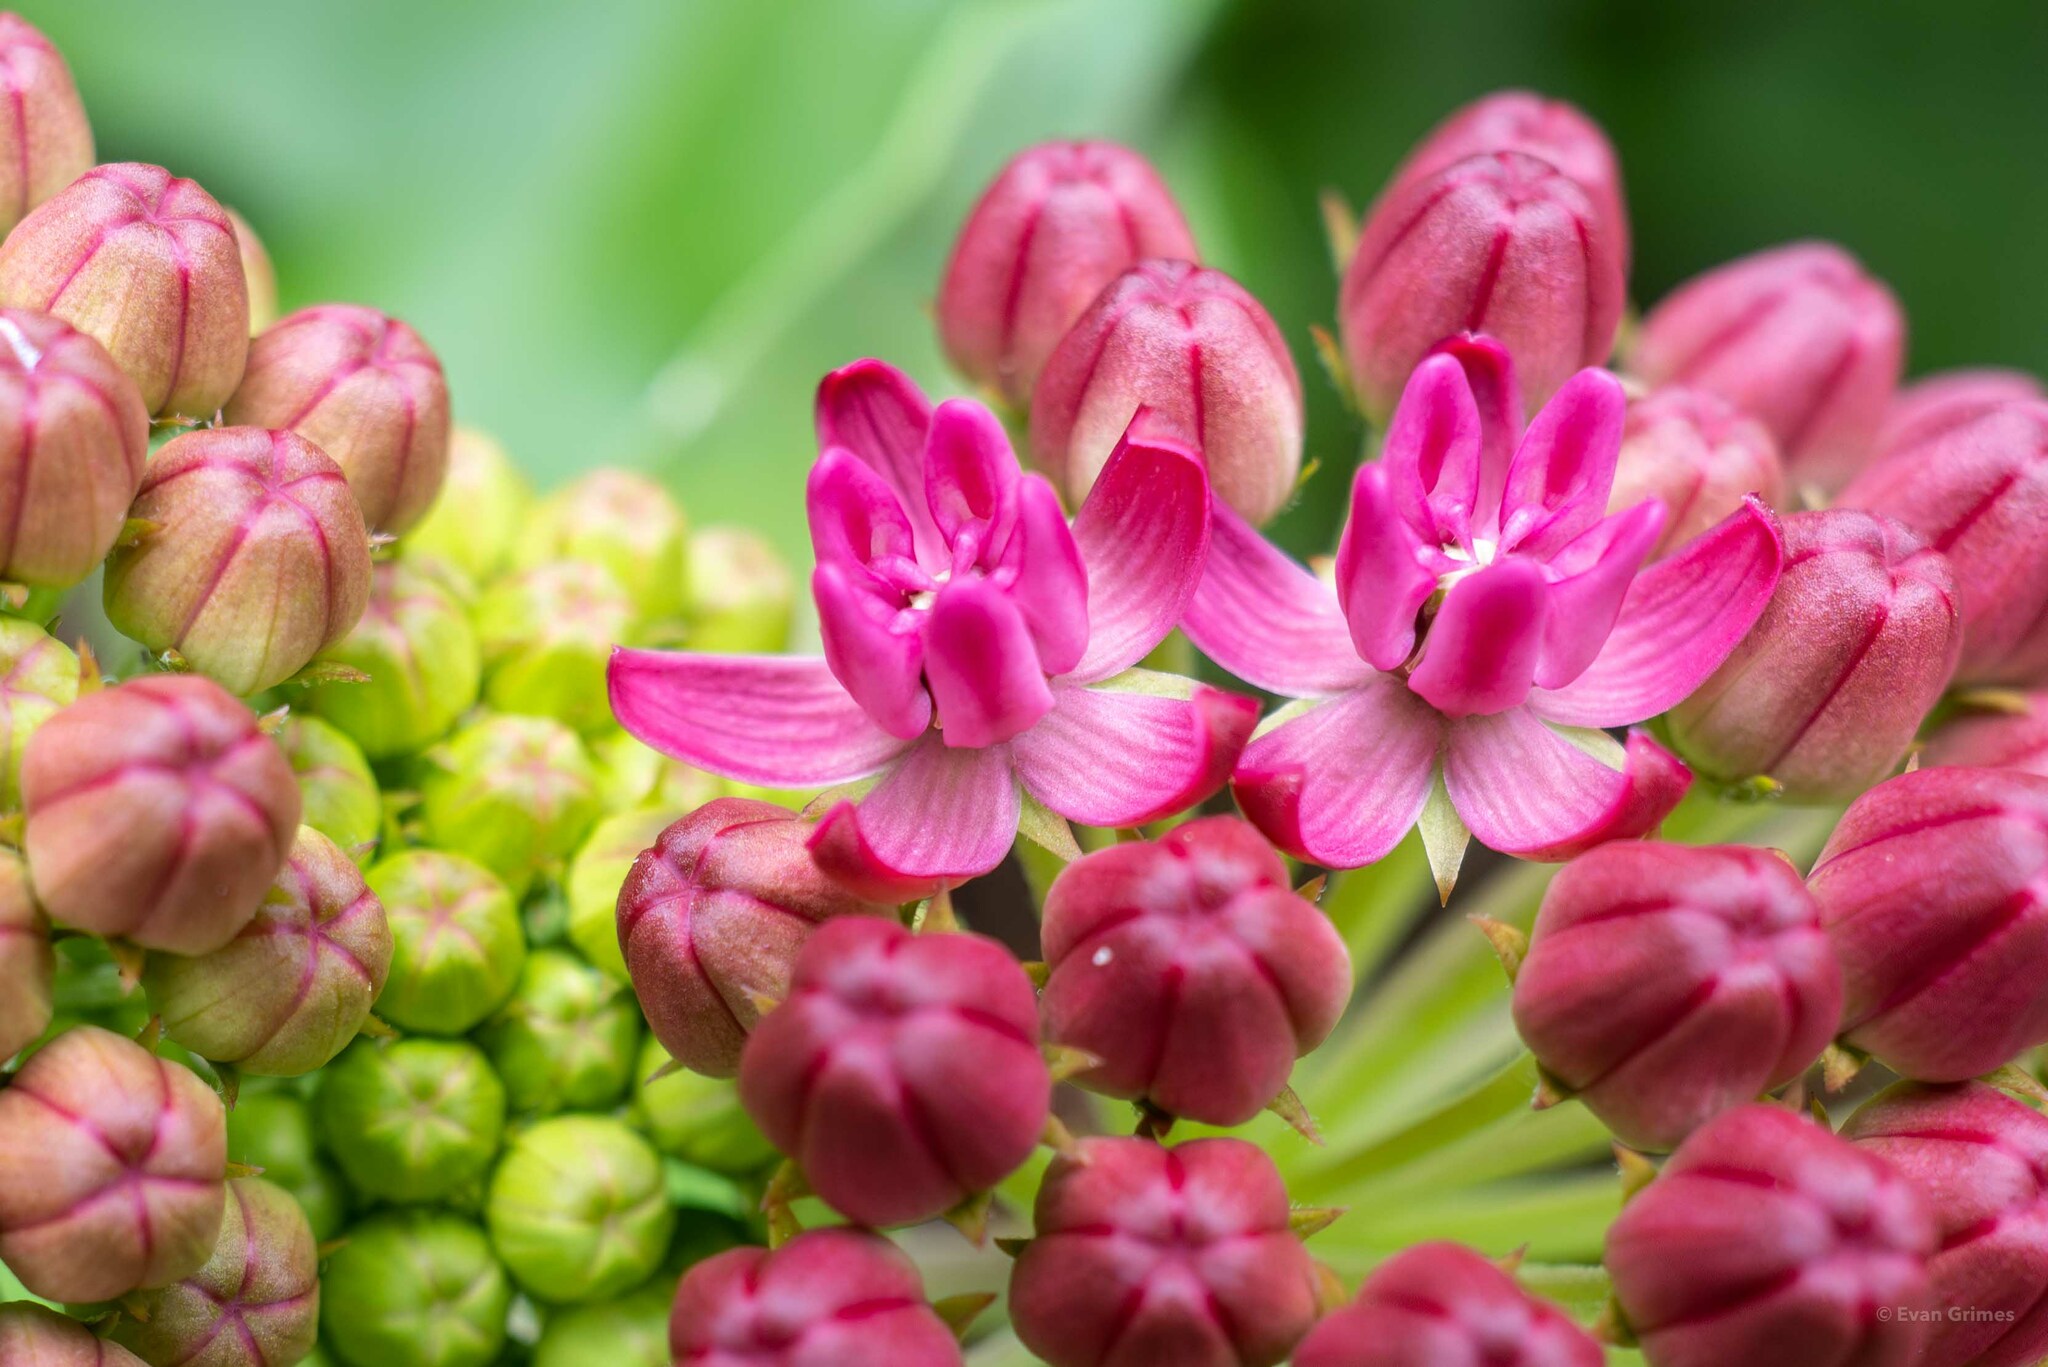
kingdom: Plantae
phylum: Tracheophyta
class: Magnoliopsida
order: Gentianales
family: Apocynaceae
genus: Asclepias
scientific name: Asclepias purpurascens
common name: Purple milkweed
